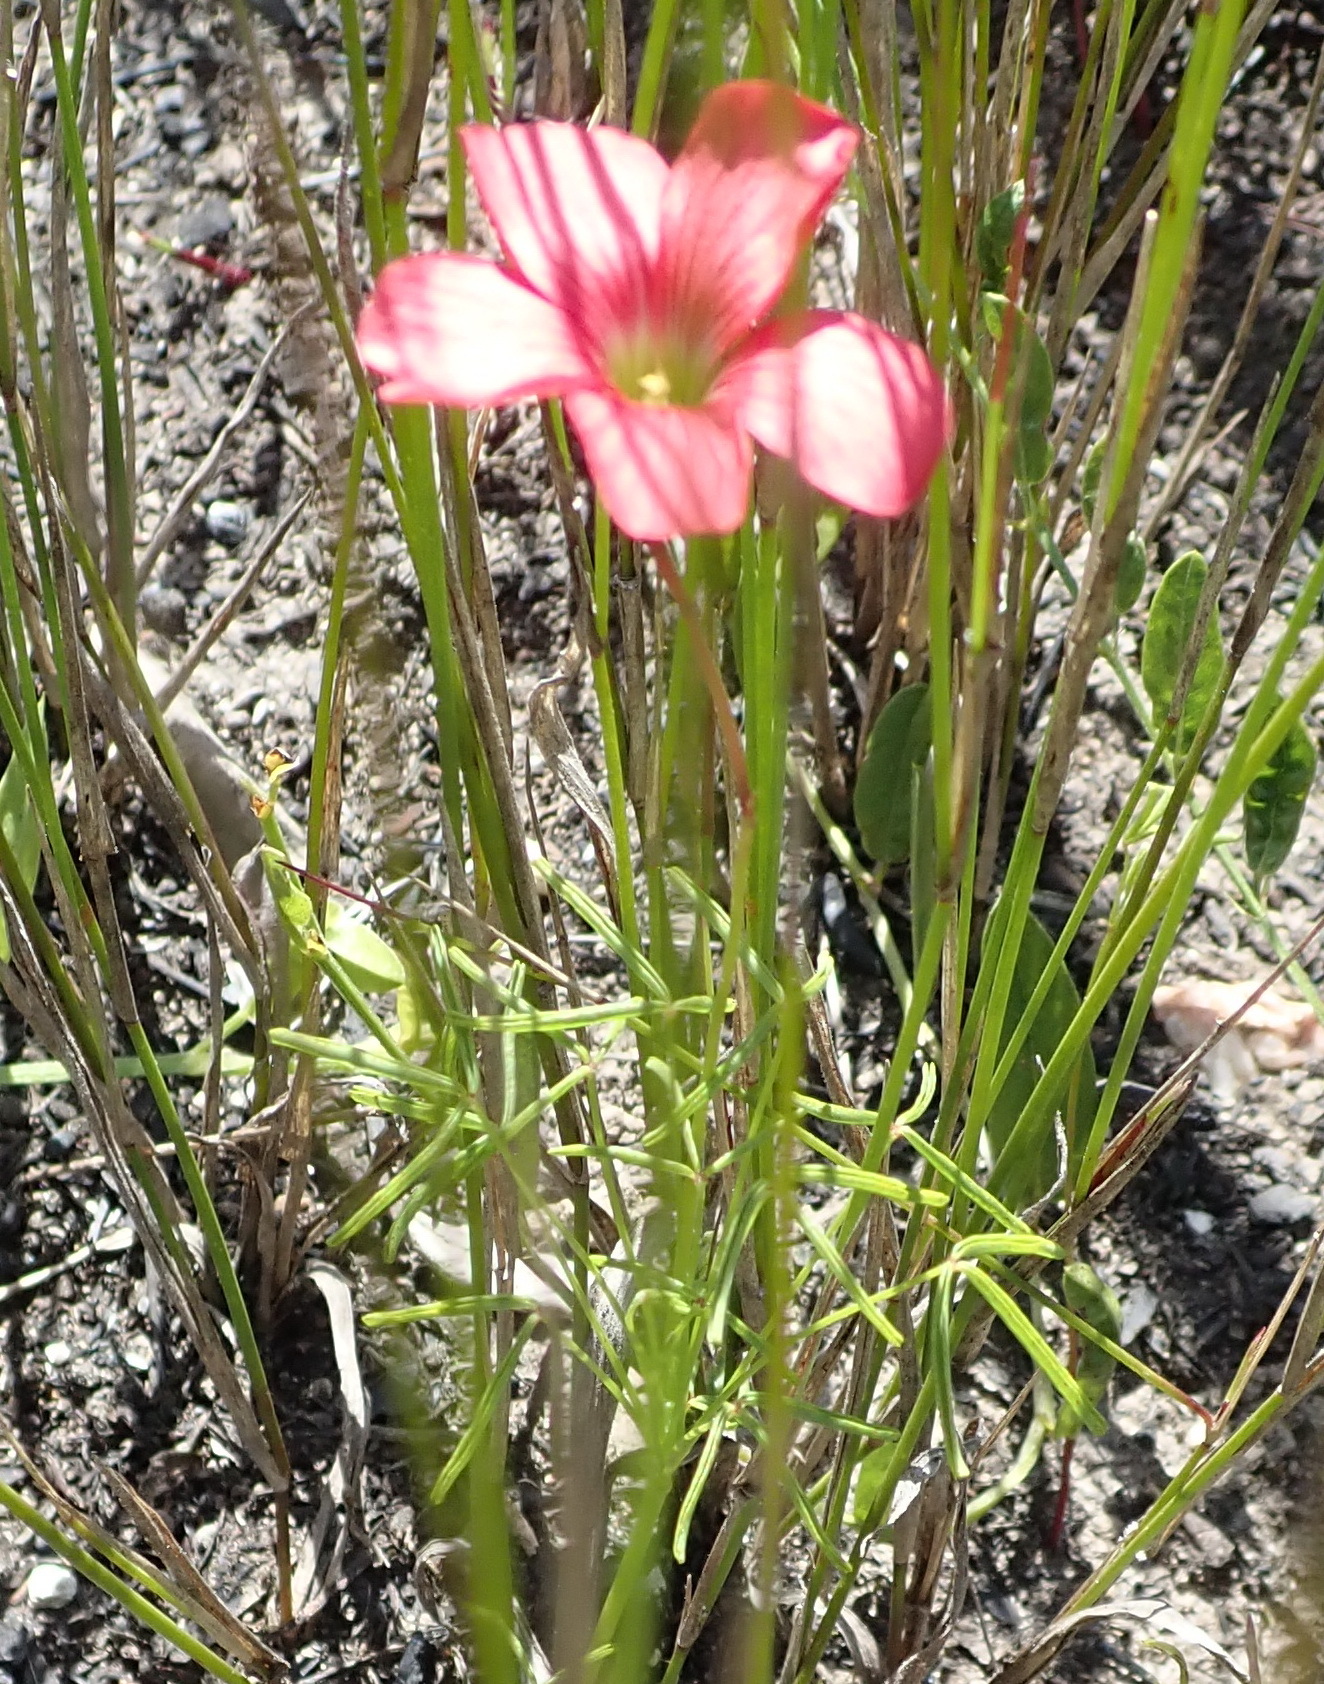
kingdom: Plantae
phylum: Tracheophyta
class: Magnoliopsida
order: Oxalidales
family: Oxalidaceae
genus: Oxalis
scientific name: Oxalis pendulifolia
